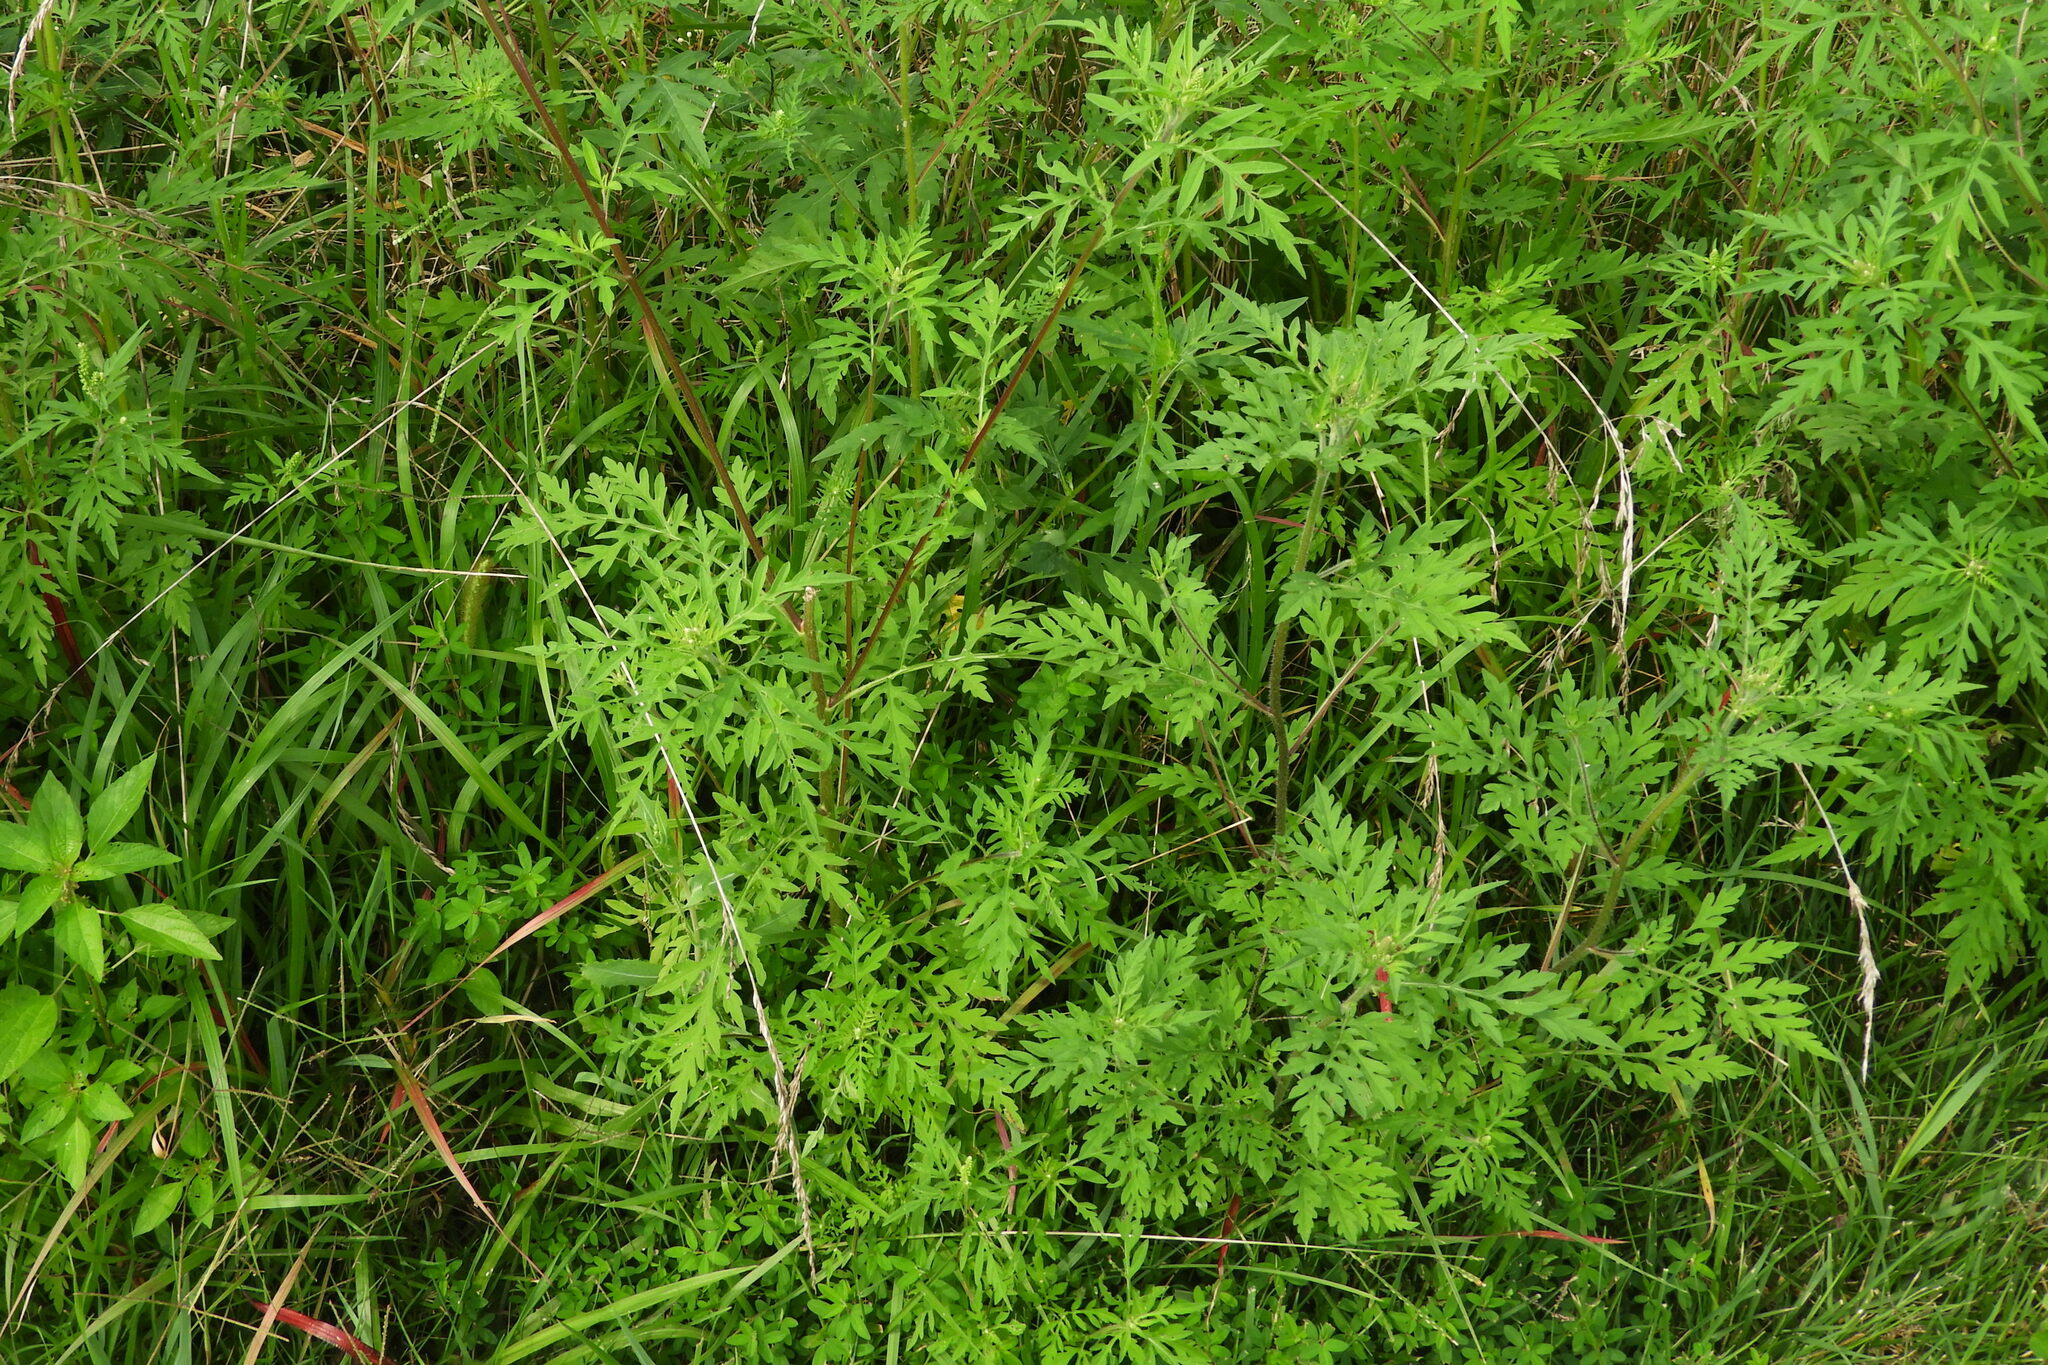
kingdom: Plantae
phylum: Tracheophyta
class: Magnoliopsida
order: Asterales
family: Asteraceae
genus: Ambrosia
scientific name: Ambrosia artemisiifolia
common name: Annual ragweed
